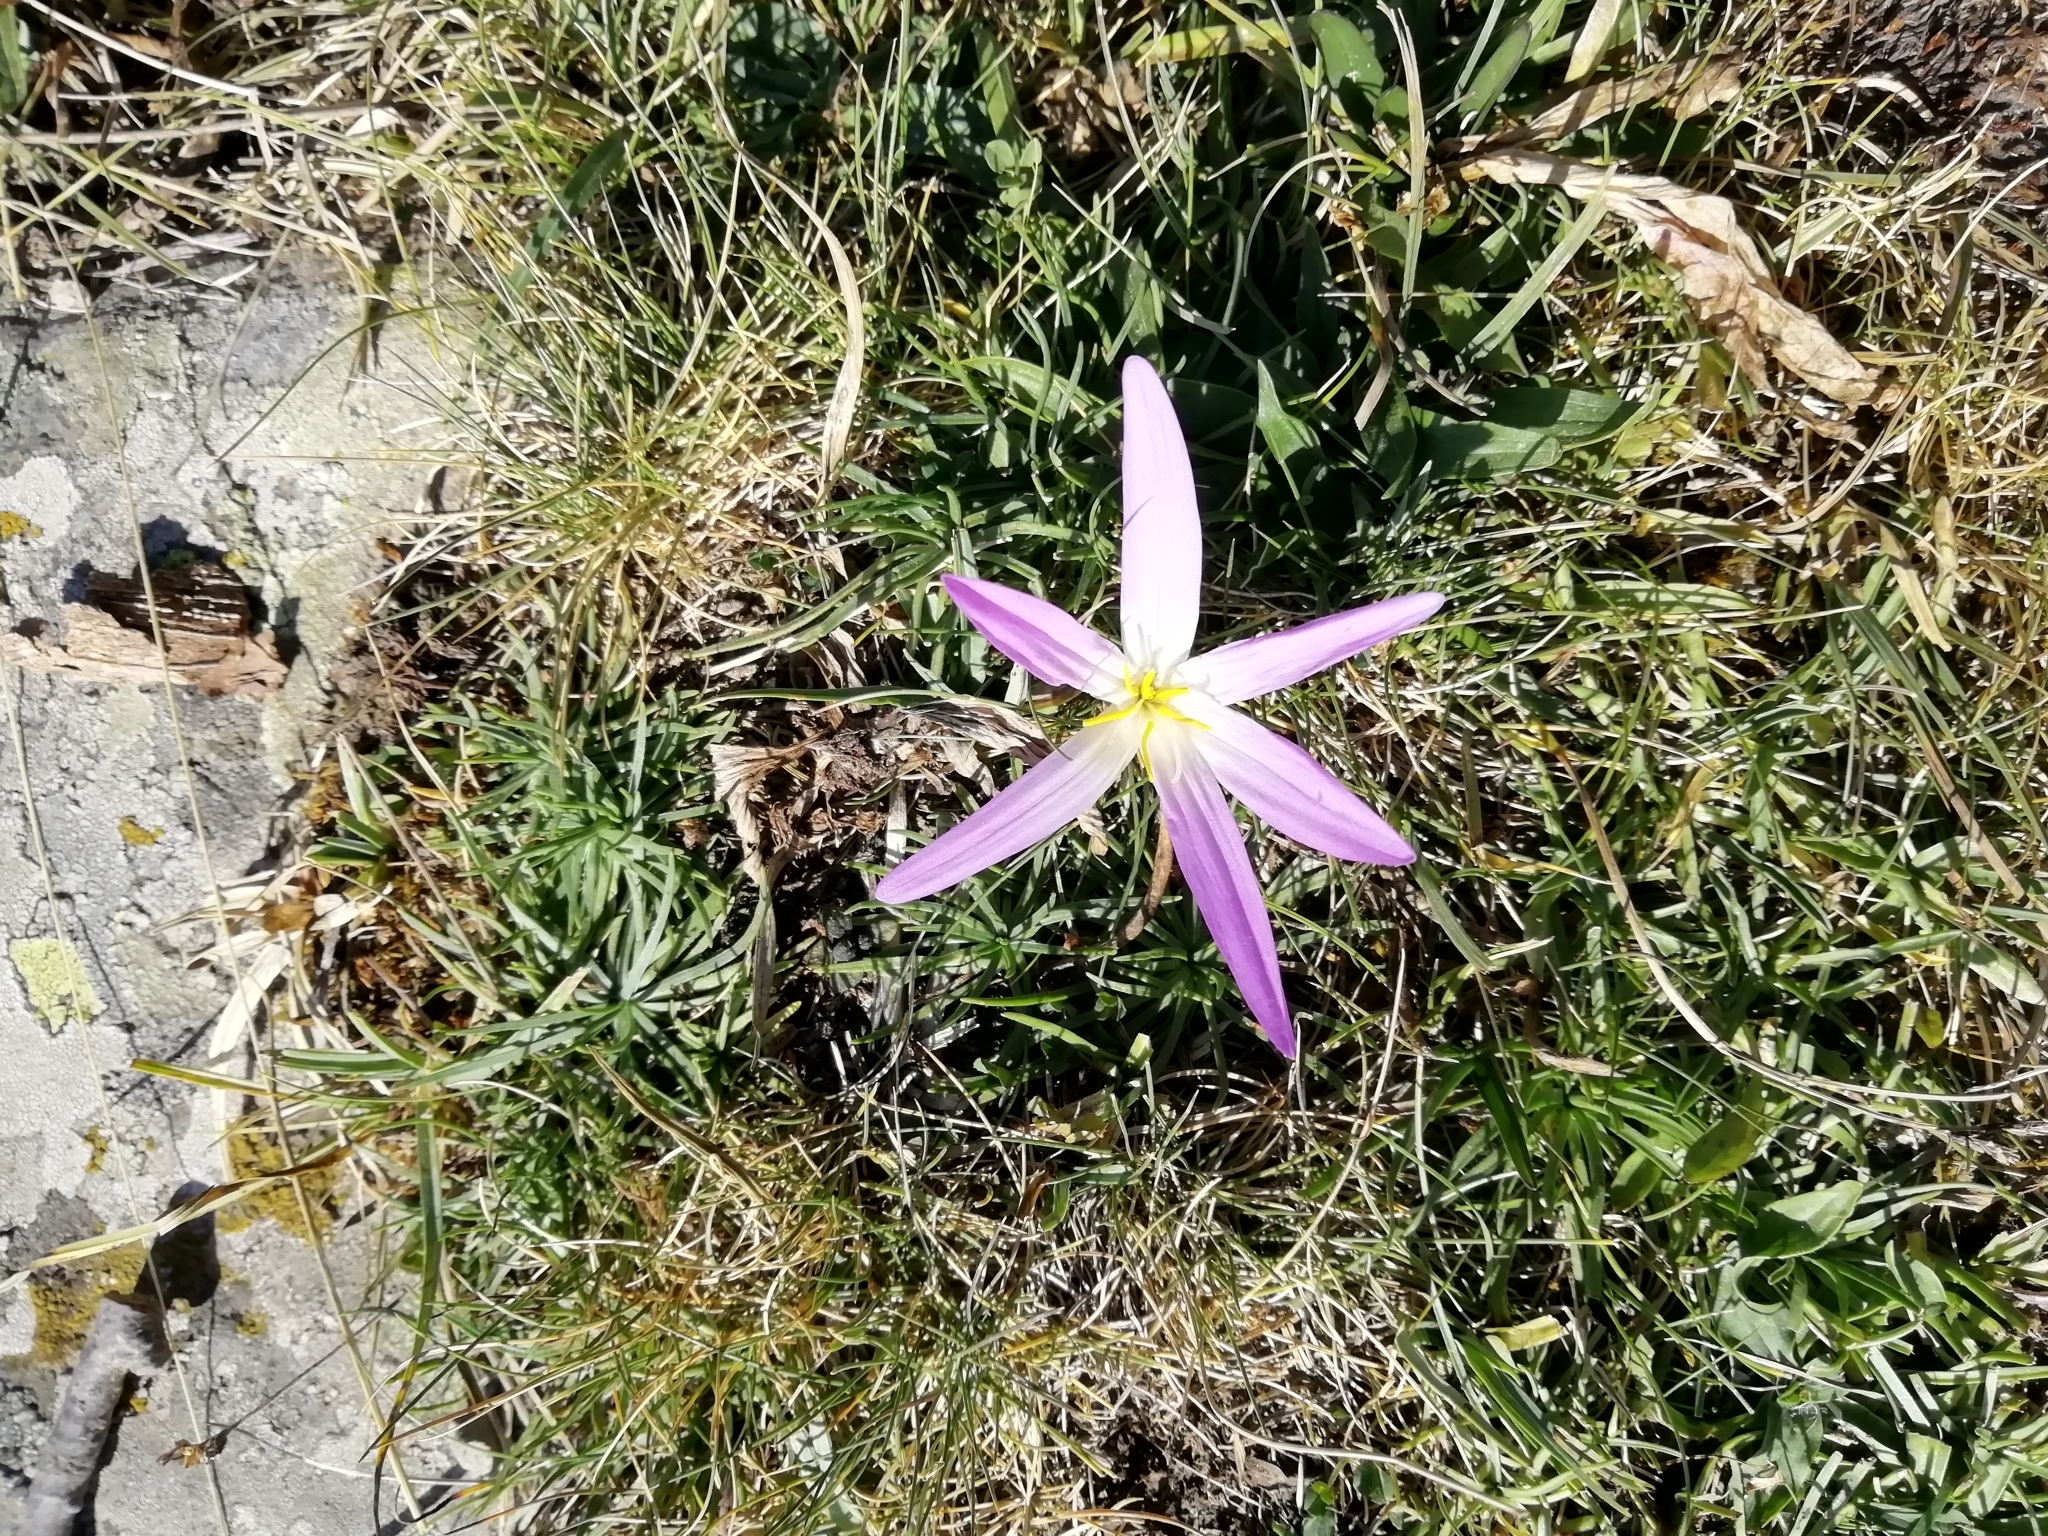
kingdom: Plantae
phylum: Tracheophyta
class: Liliopsida
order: Liliales
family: Colchicaceae
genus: Colchicum
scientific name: Colchicum montanum
